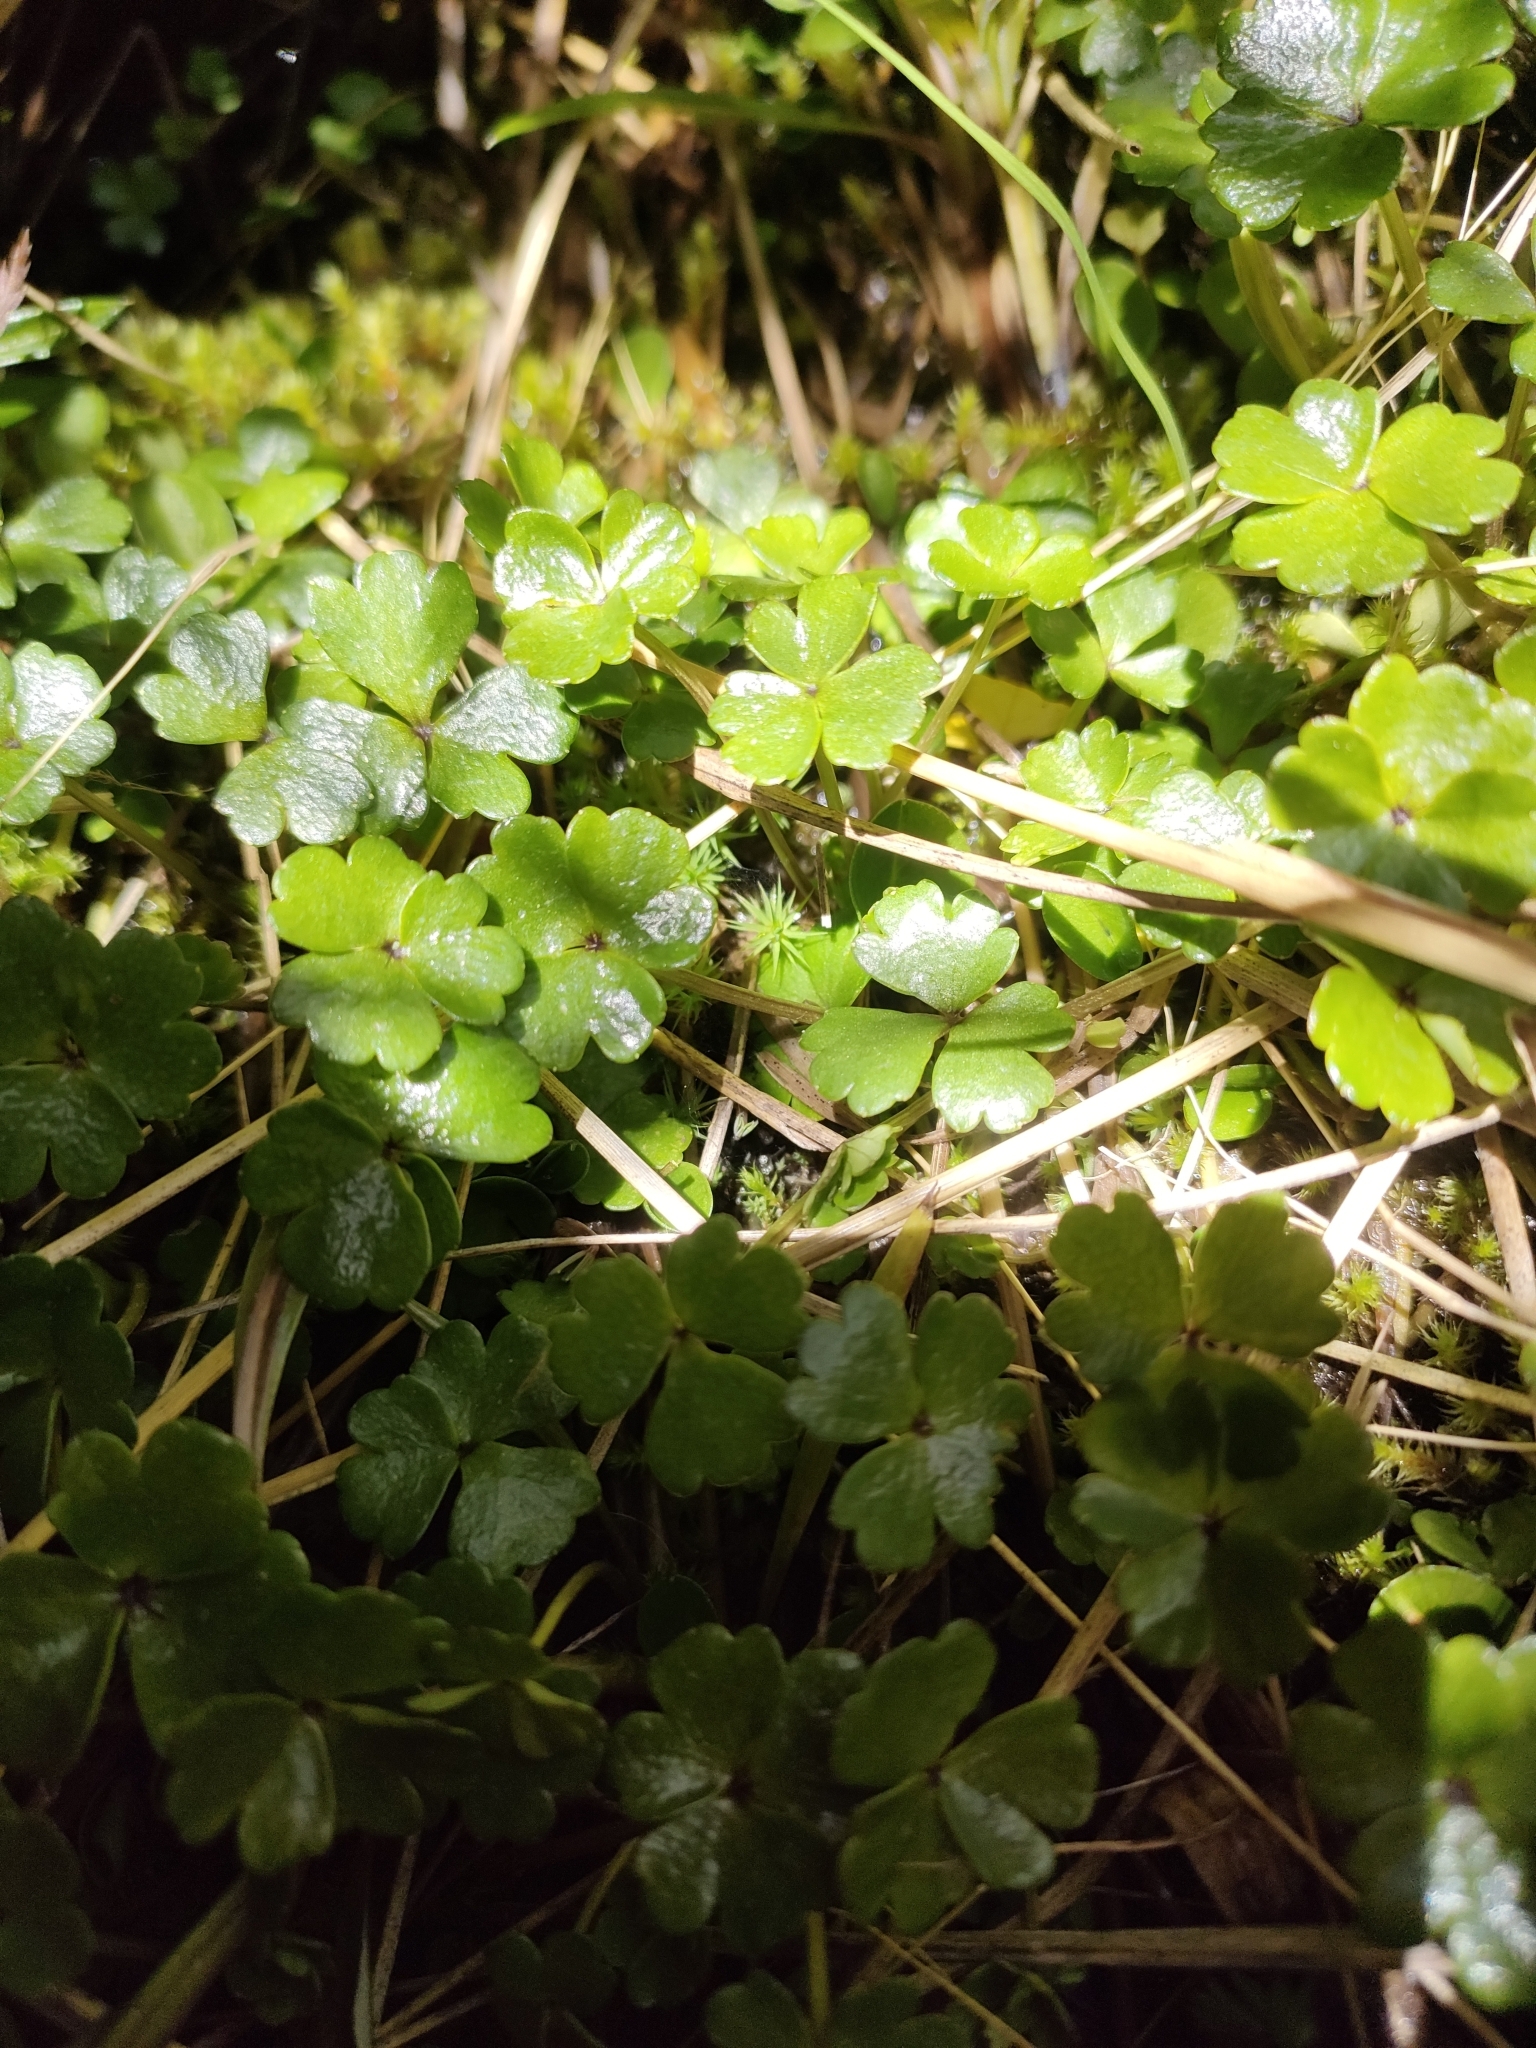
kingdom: Plantae
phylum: Tracheophyta
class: Magnoliopsida
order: Apiales
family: Apiaceae
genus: Azorella
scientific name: Azorella pallida
